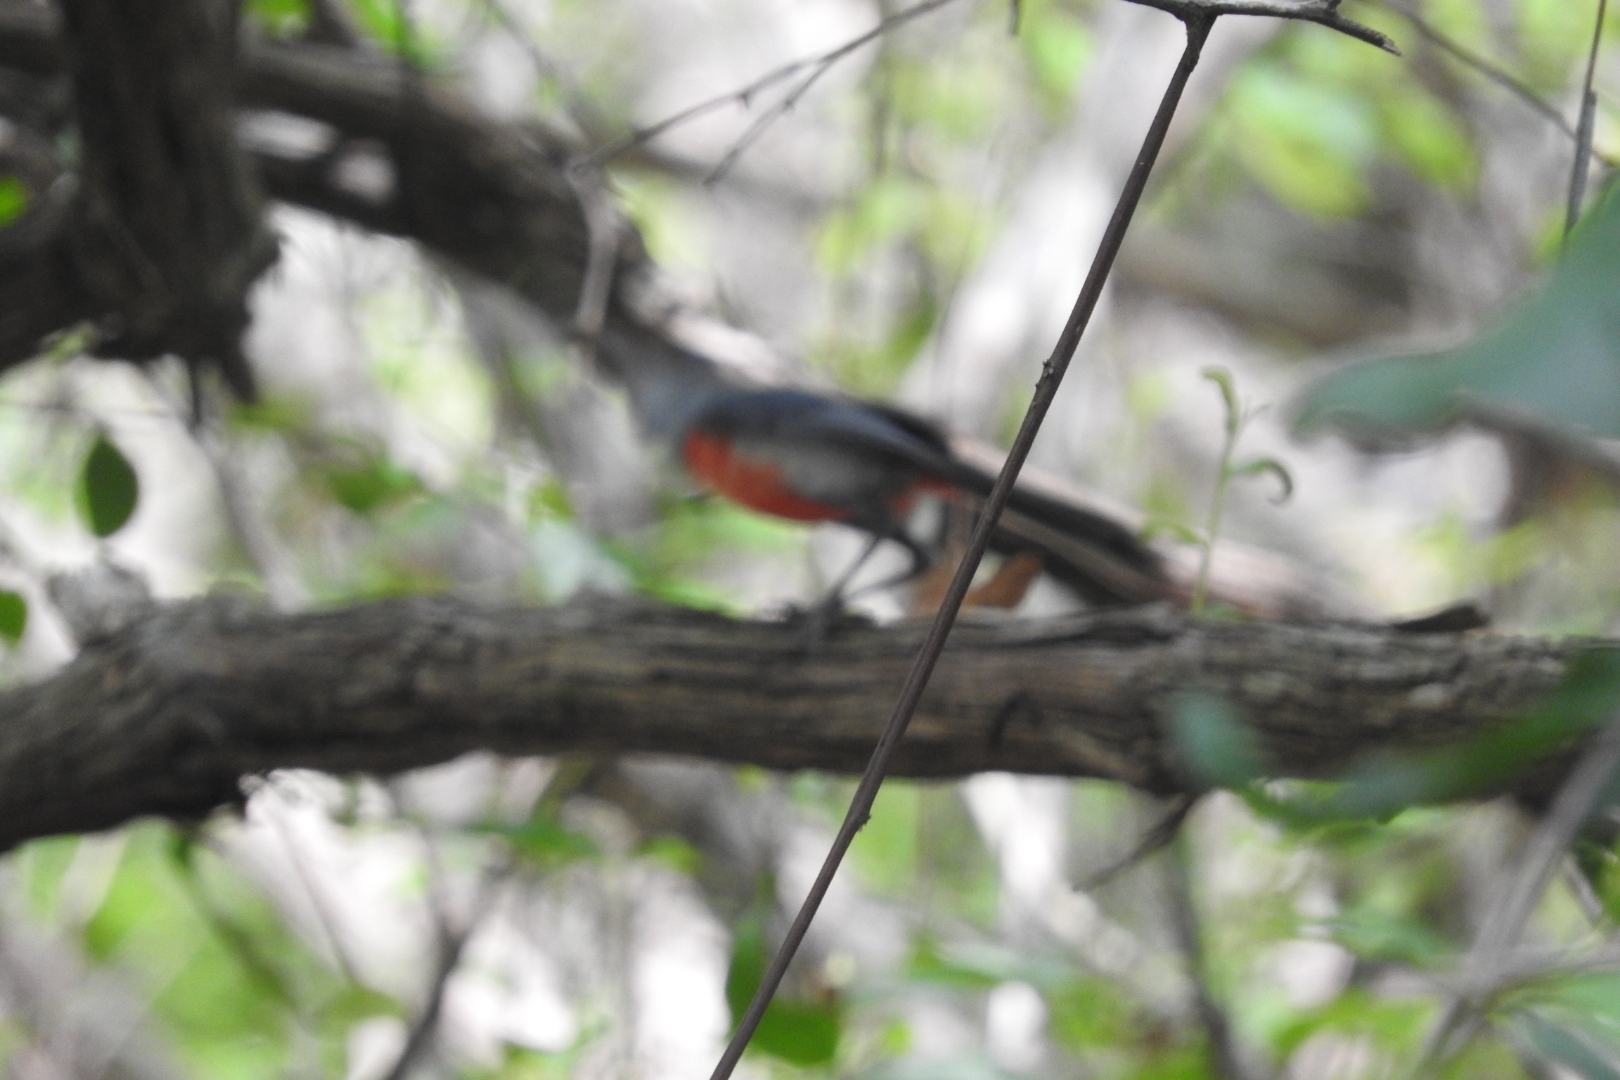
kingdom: Animalia
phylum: Chordata
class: Aves
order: Passeriformes
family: Cardinalidae
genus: Granatellus
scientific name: Granatellus sallaei
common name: Gray-throated chat
